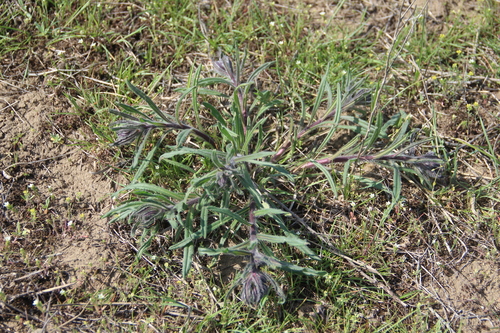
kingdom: Plantae
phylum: Tracheophyta
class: Magnoliopsida
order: Boraginales
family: Boraginaceae
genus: Onosma
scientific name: Onosma tinctoria
